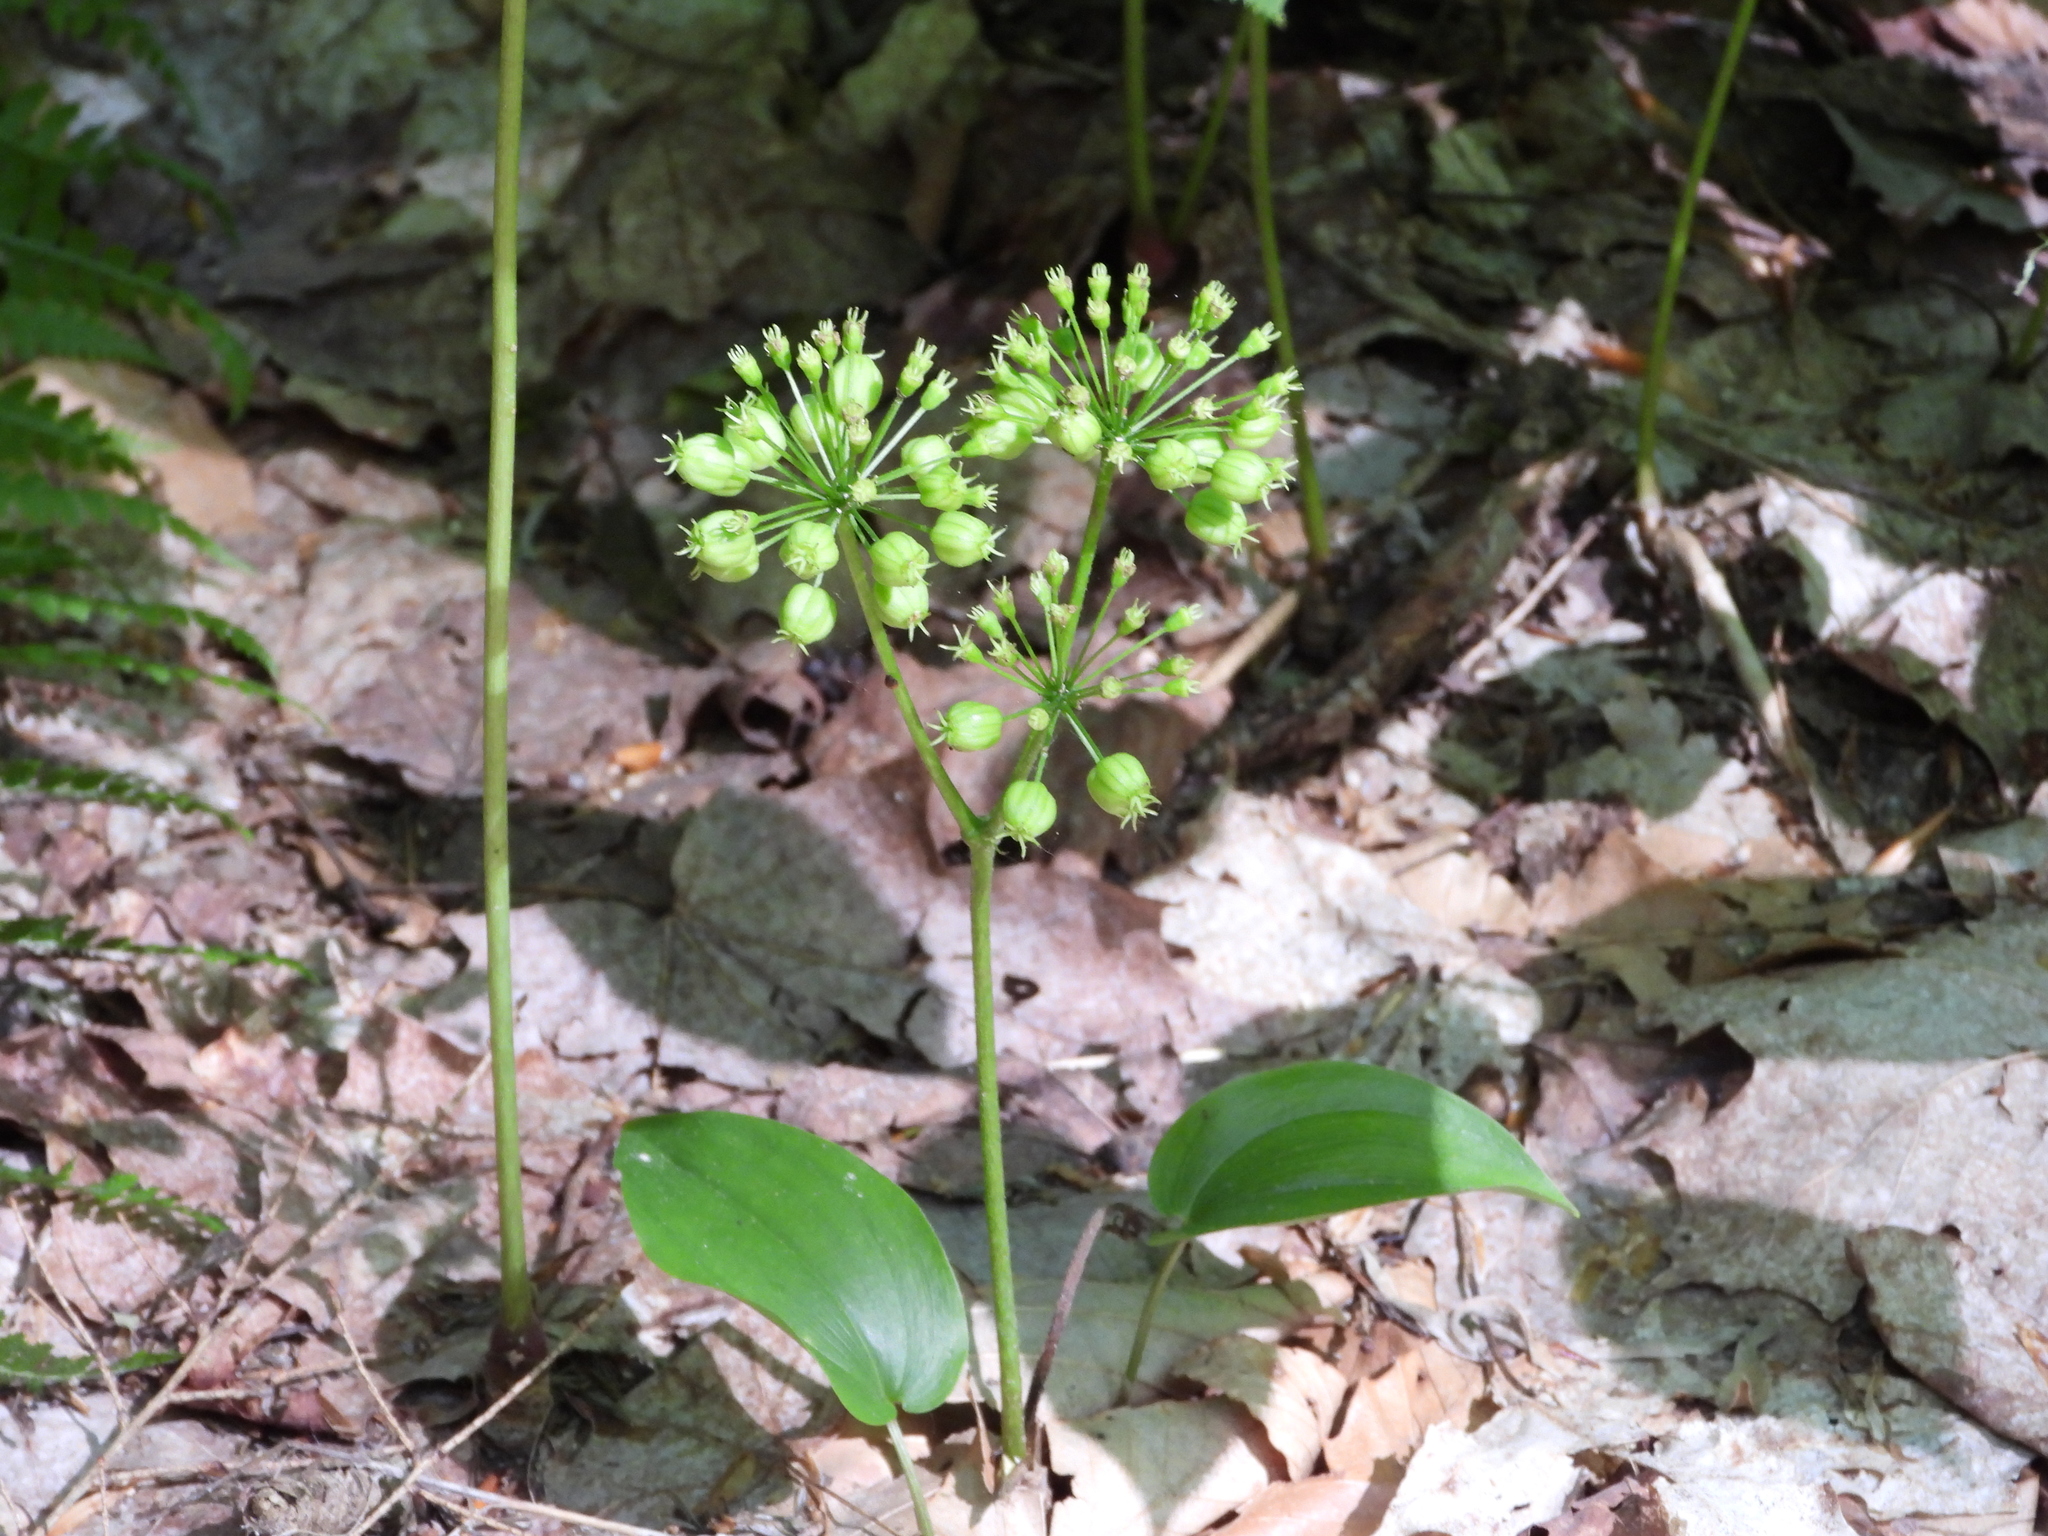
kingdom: Plantae
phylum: Tracheophyta
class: Magnoliopsida
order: Apiales
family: Araliaceae
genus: Aralia
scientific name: Aralia nudicaulis
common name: Wild sarsaparilla
